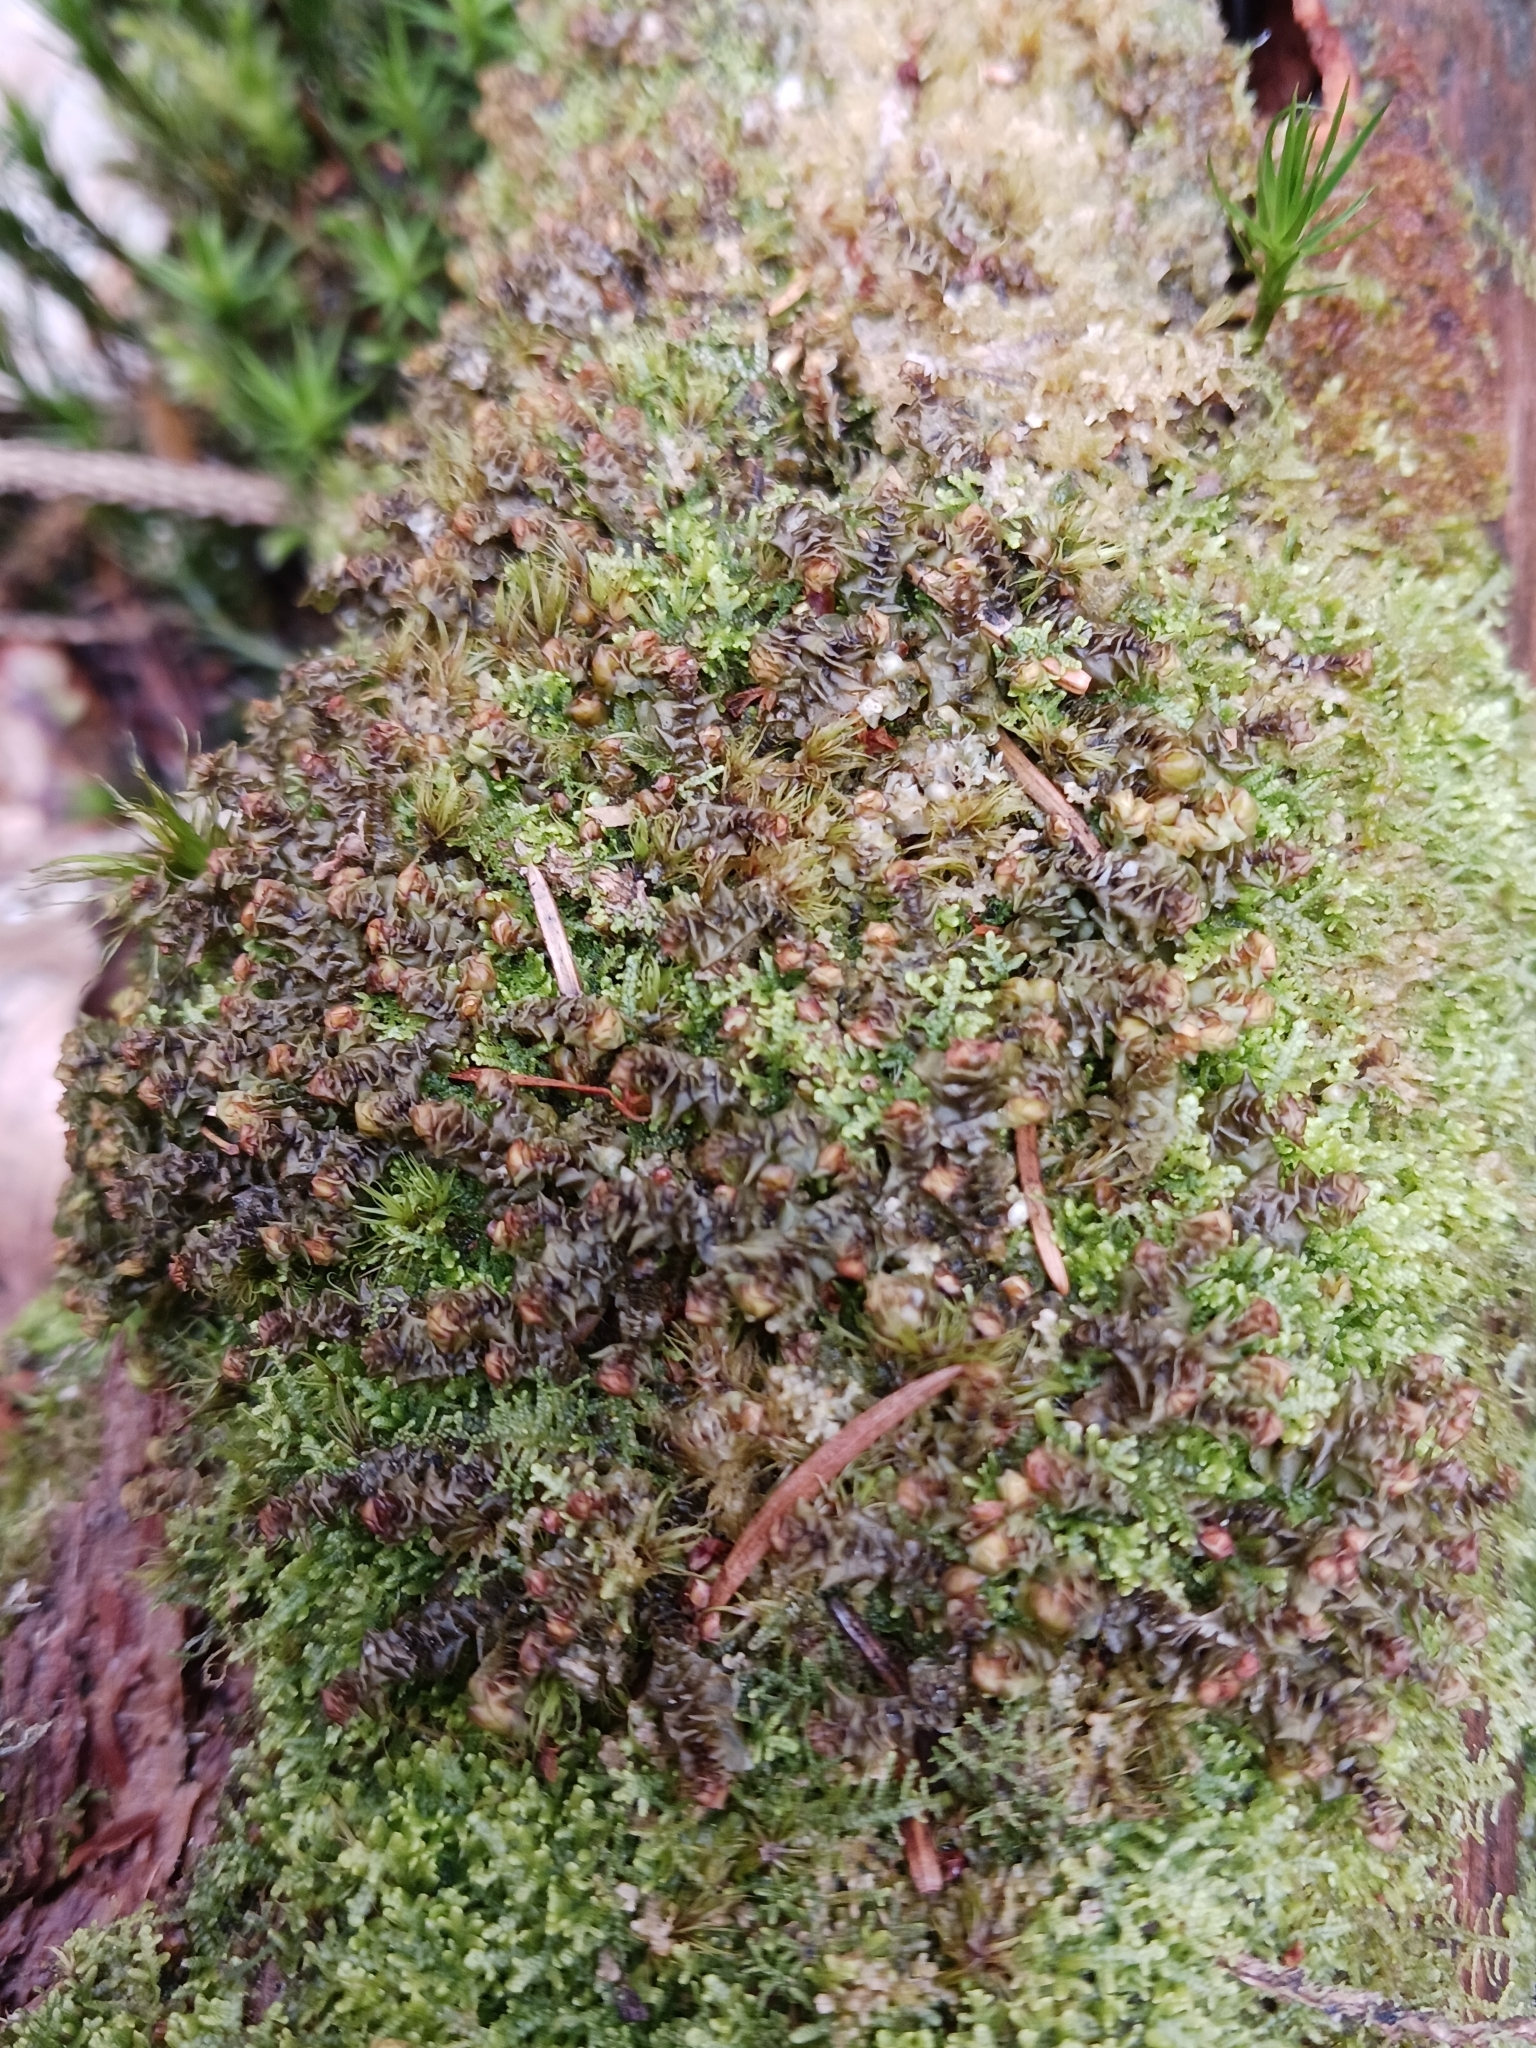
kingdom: Plantae
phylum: Marchantiophyta
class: Jungermanniopsida
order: Jungermanniales
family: Scapaniaceae
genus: Scapania
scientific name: Scapania nemorea
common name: Grove earwort
